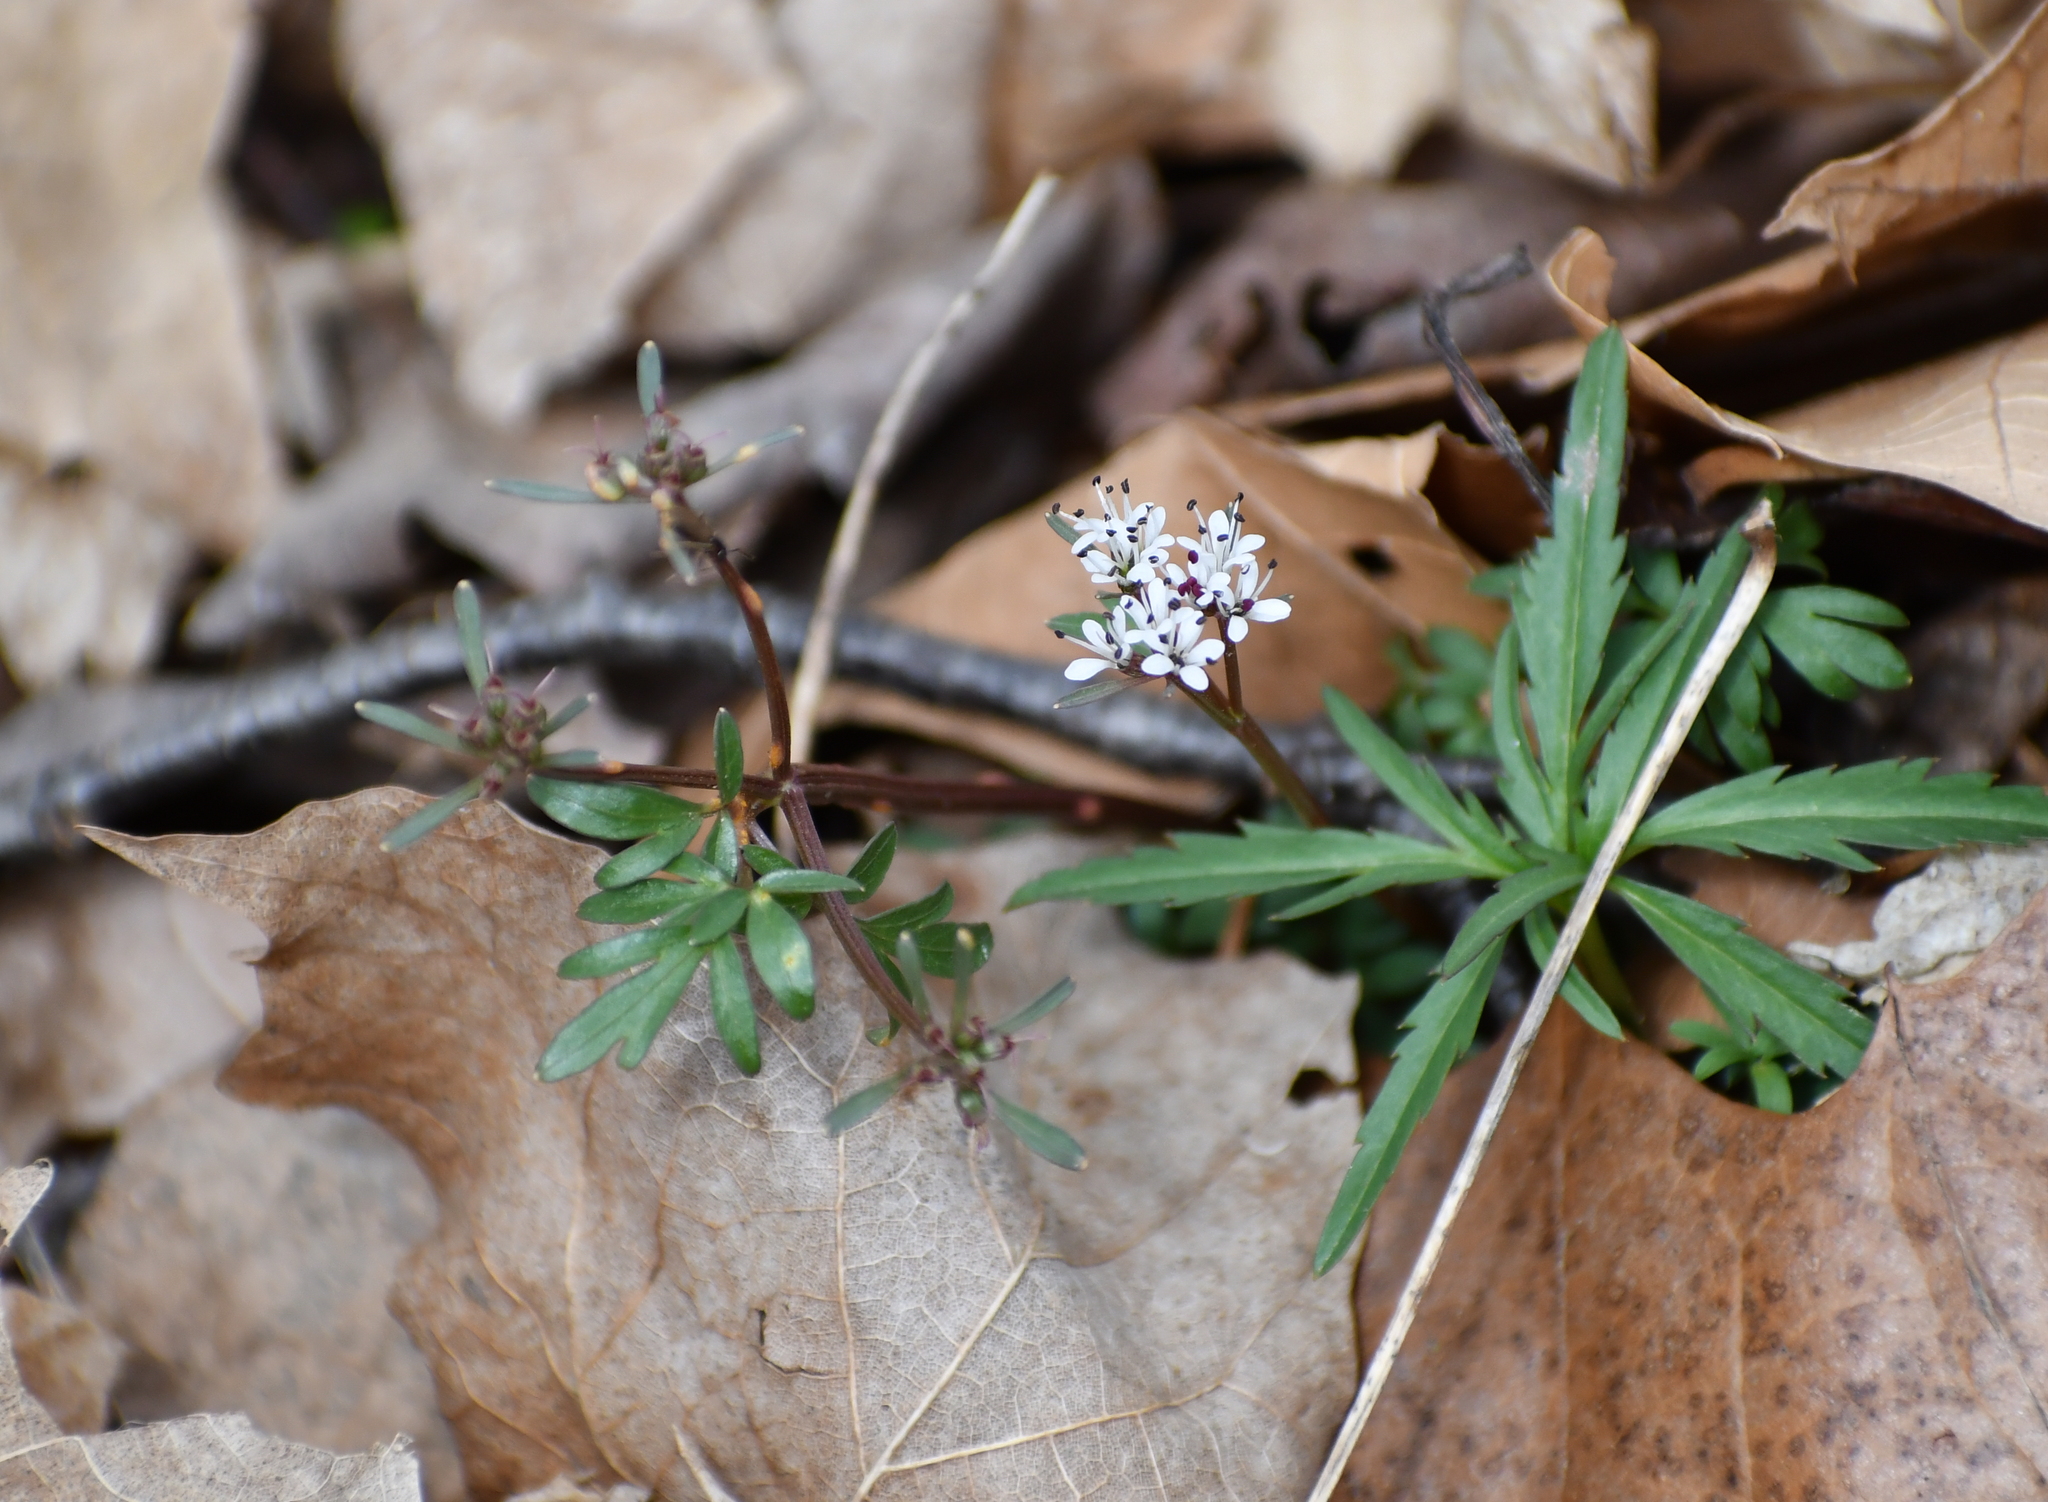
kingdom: Plantae
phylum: Tracheophyta
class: Magnoliopsida
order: Apiales
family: Apiaceae
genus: Erigenia
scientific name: Erigenia bulbosa
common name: Pepper-and-salt
